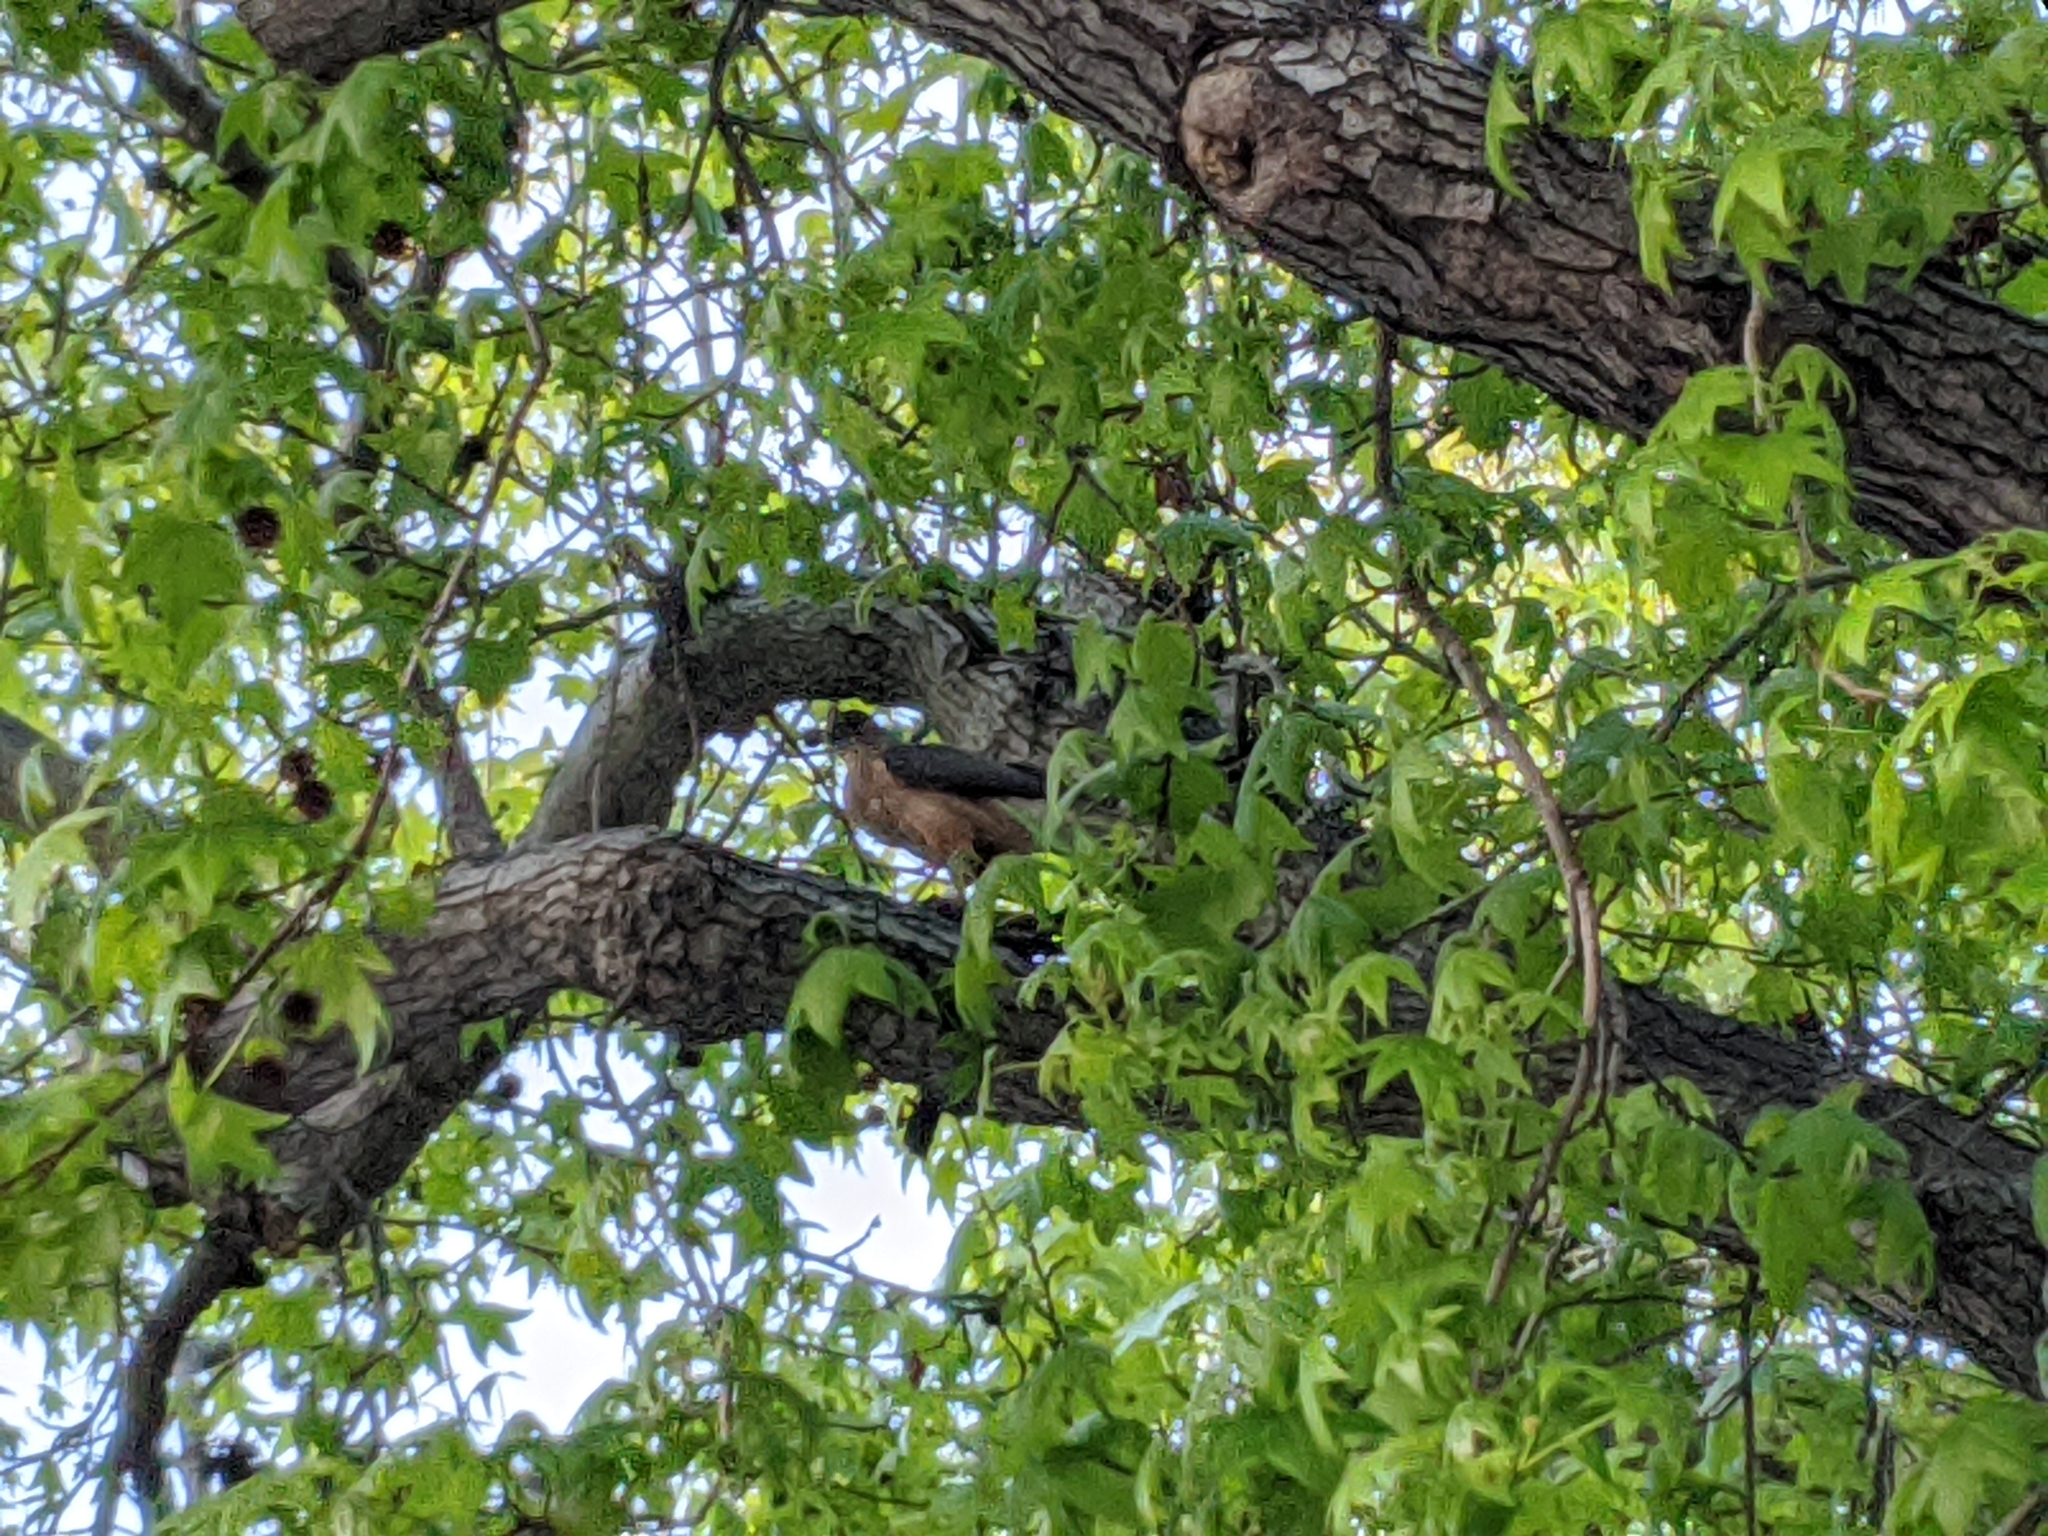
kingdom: Animalia
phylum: Chordata
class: Aves
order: Accipitriformes
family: Accipitridae
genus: Accipiter
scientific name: Accipiter cooperii
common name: Cooper's hawk
